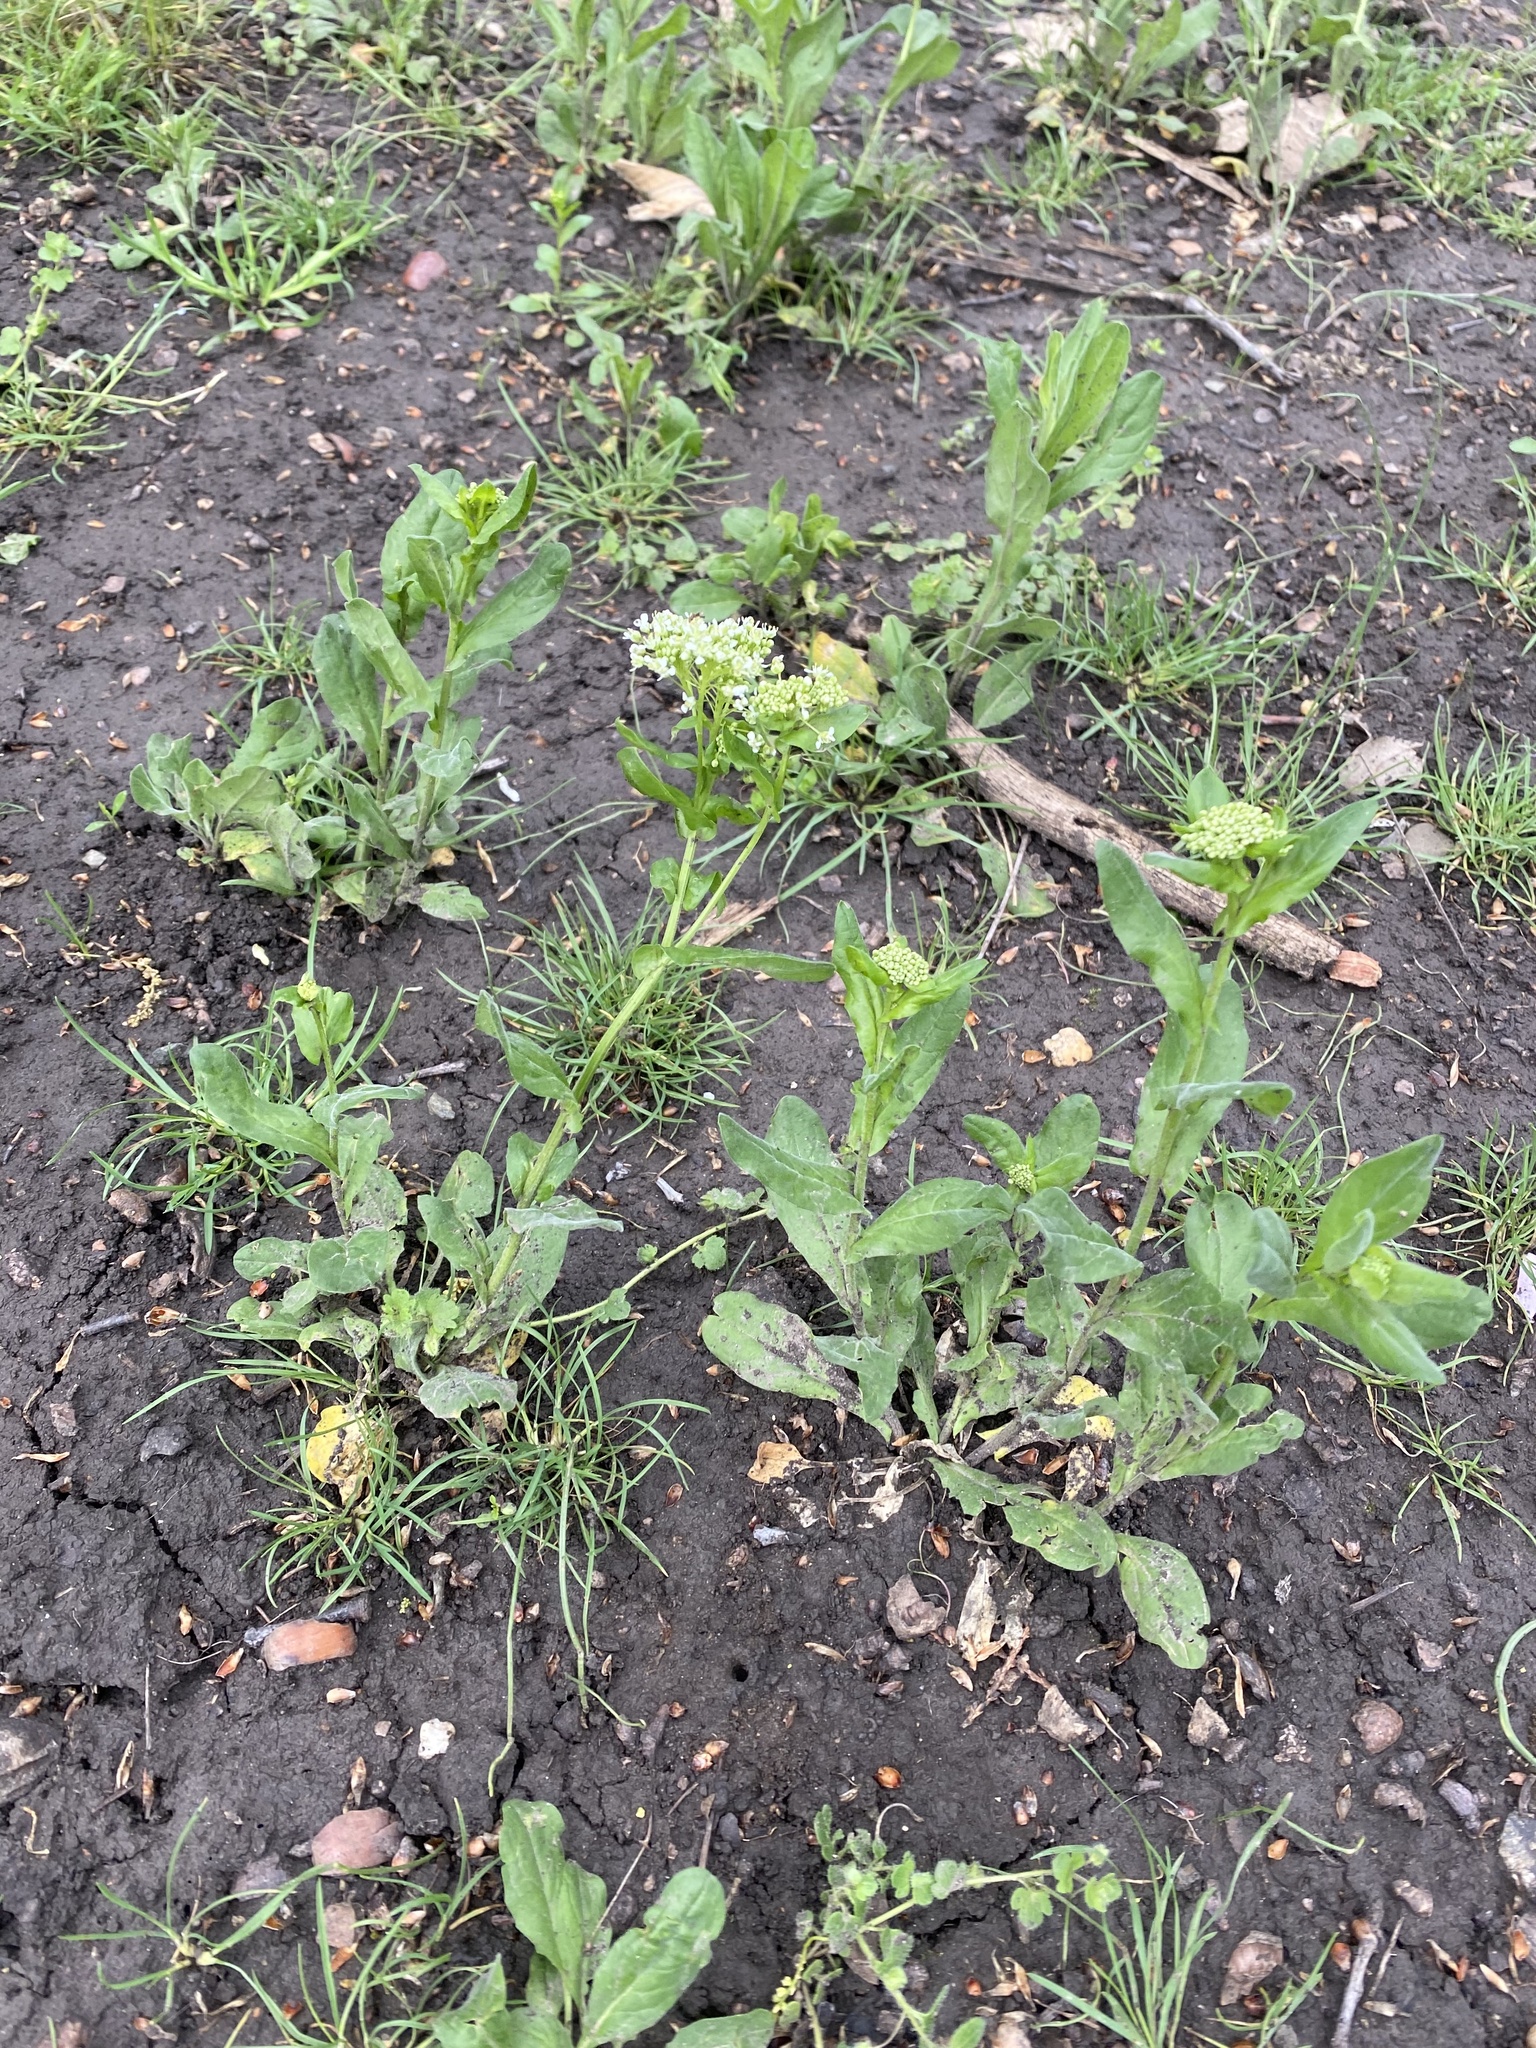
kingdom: Plantae
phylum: Tracheophyta
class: Magnoliopsida
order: Brassicales
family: Brassicaceae
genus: Lepidium
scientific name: Lepidium draba
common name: Hoary cress
